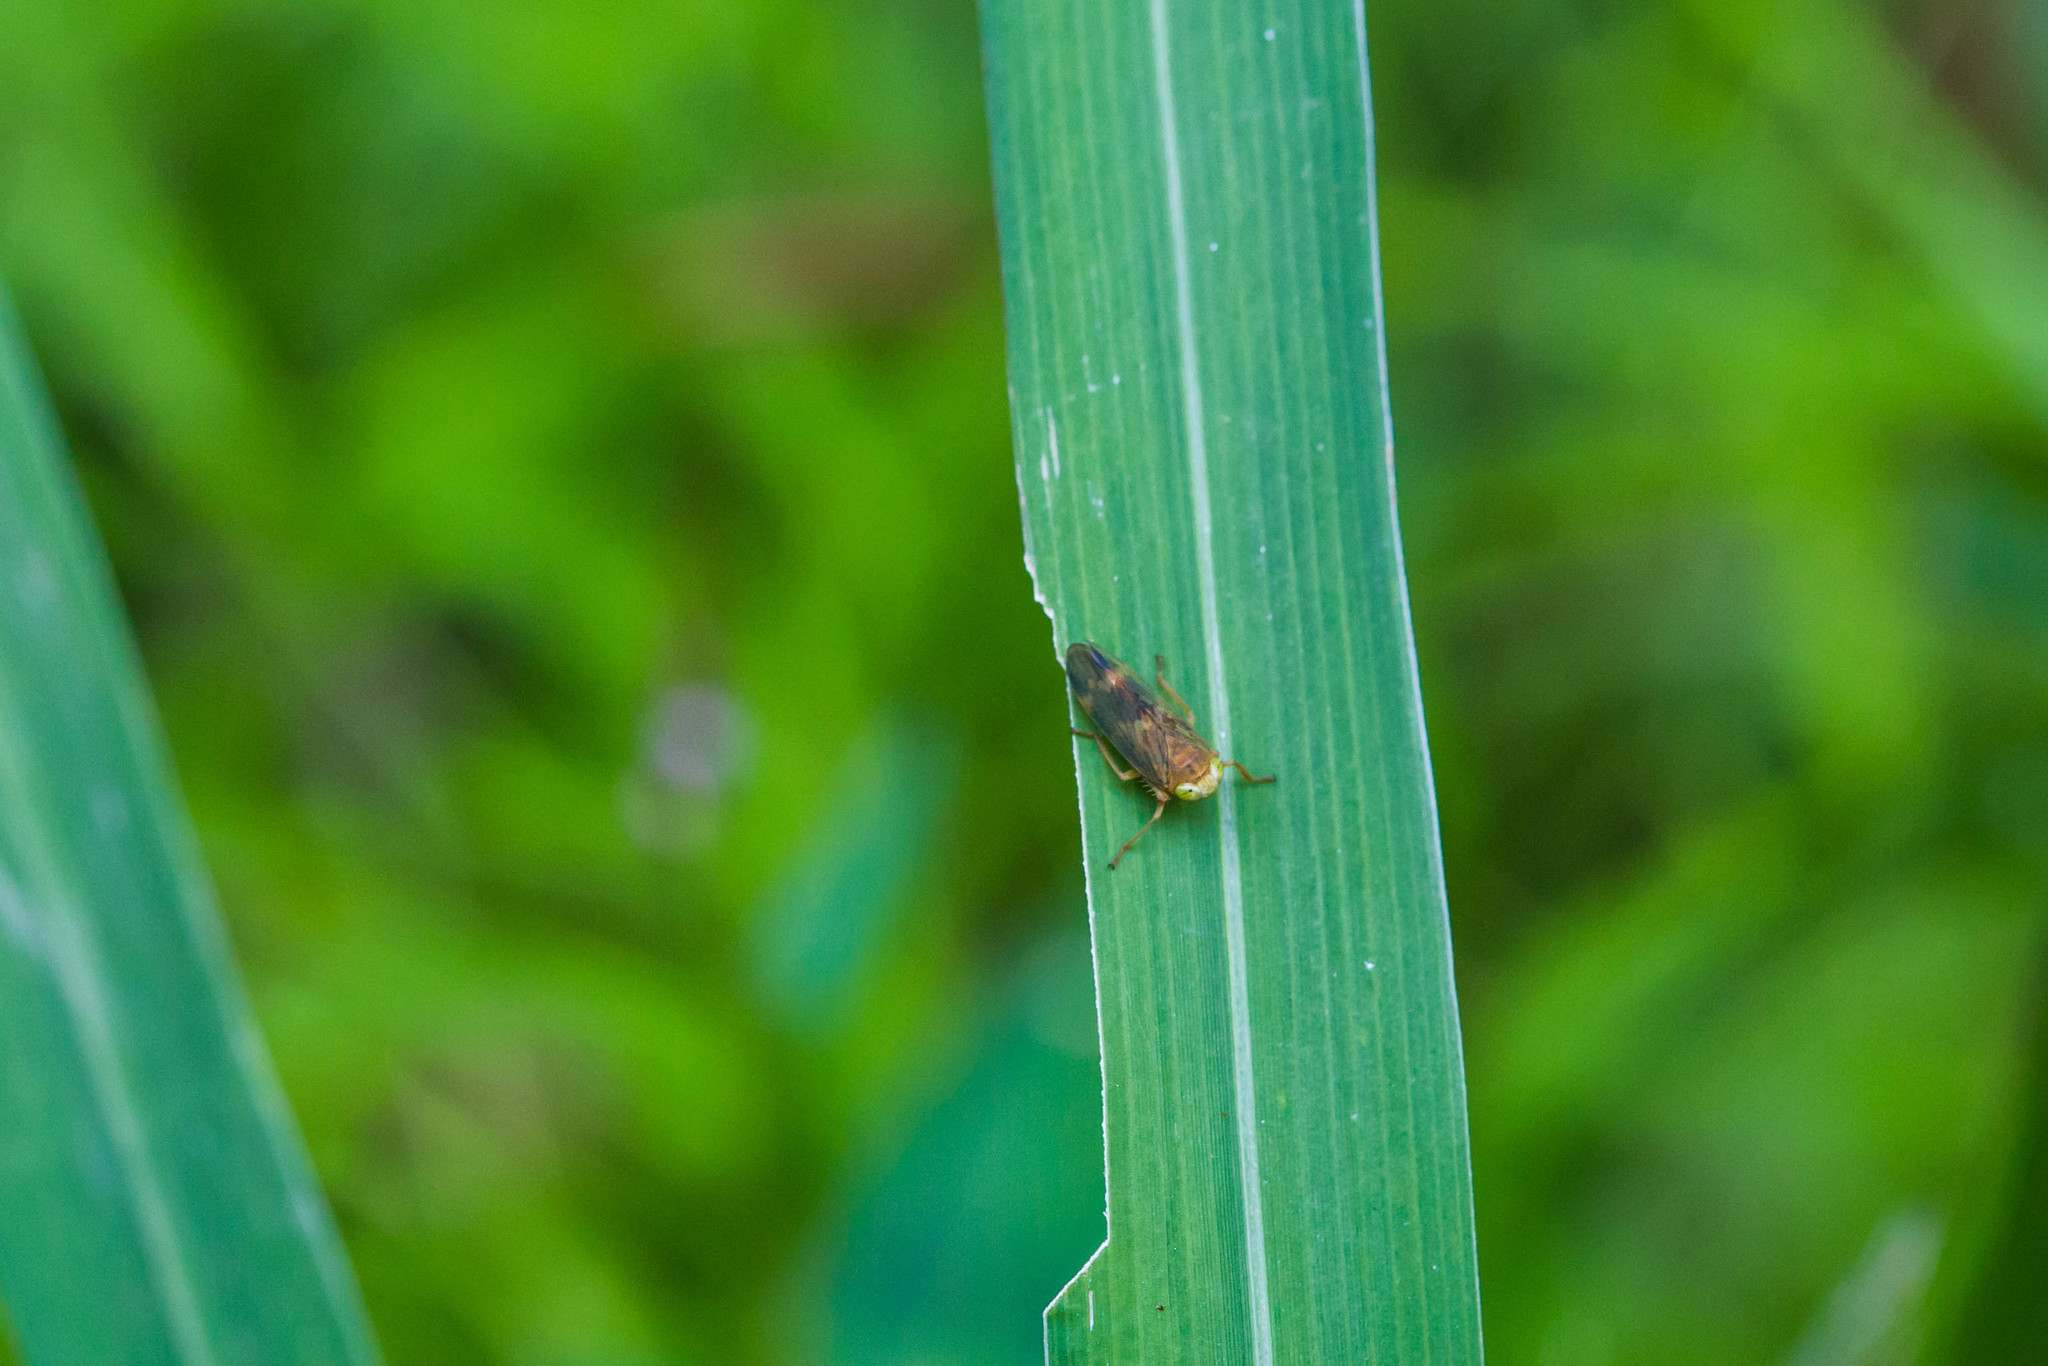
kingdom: Animalia
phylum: Arthropoda
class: Insecta
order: Hemiptera
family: Cicadellidae
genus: Jikradia
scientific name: Jikradia olitoria
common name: Coppery leafhopper
